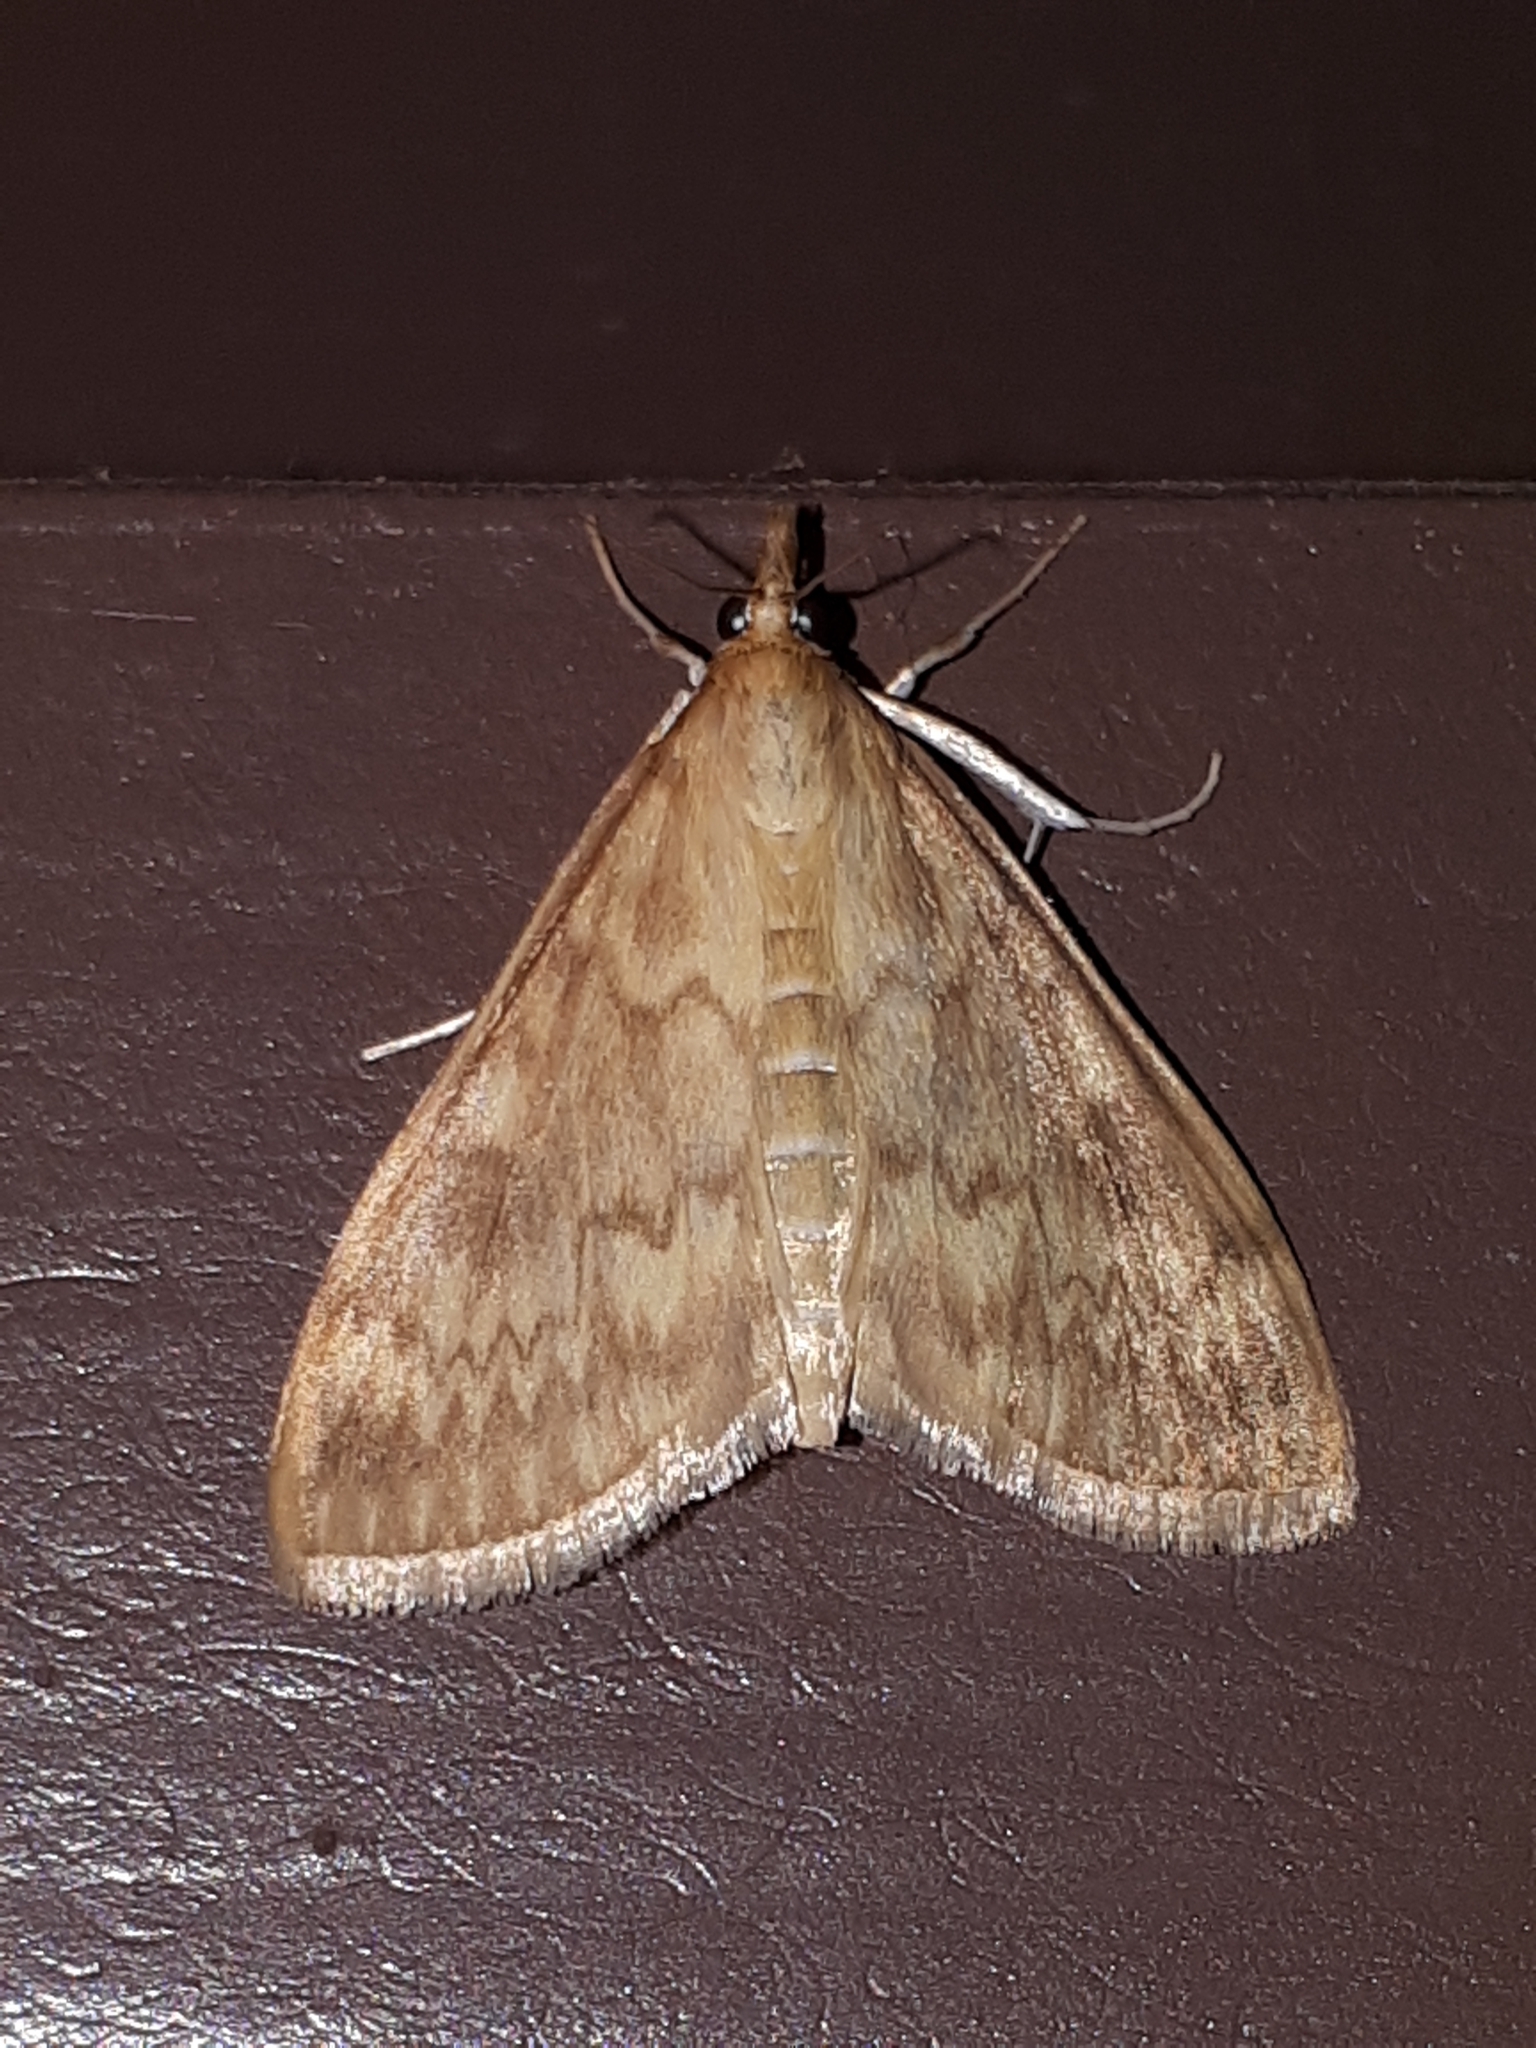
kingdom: Animalia
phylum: Arthropoda
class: Insecta
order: Lepidoptera
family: Crambidae
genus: Ostrinia
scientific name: Ostrinia nubilalis
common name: European corn borer
